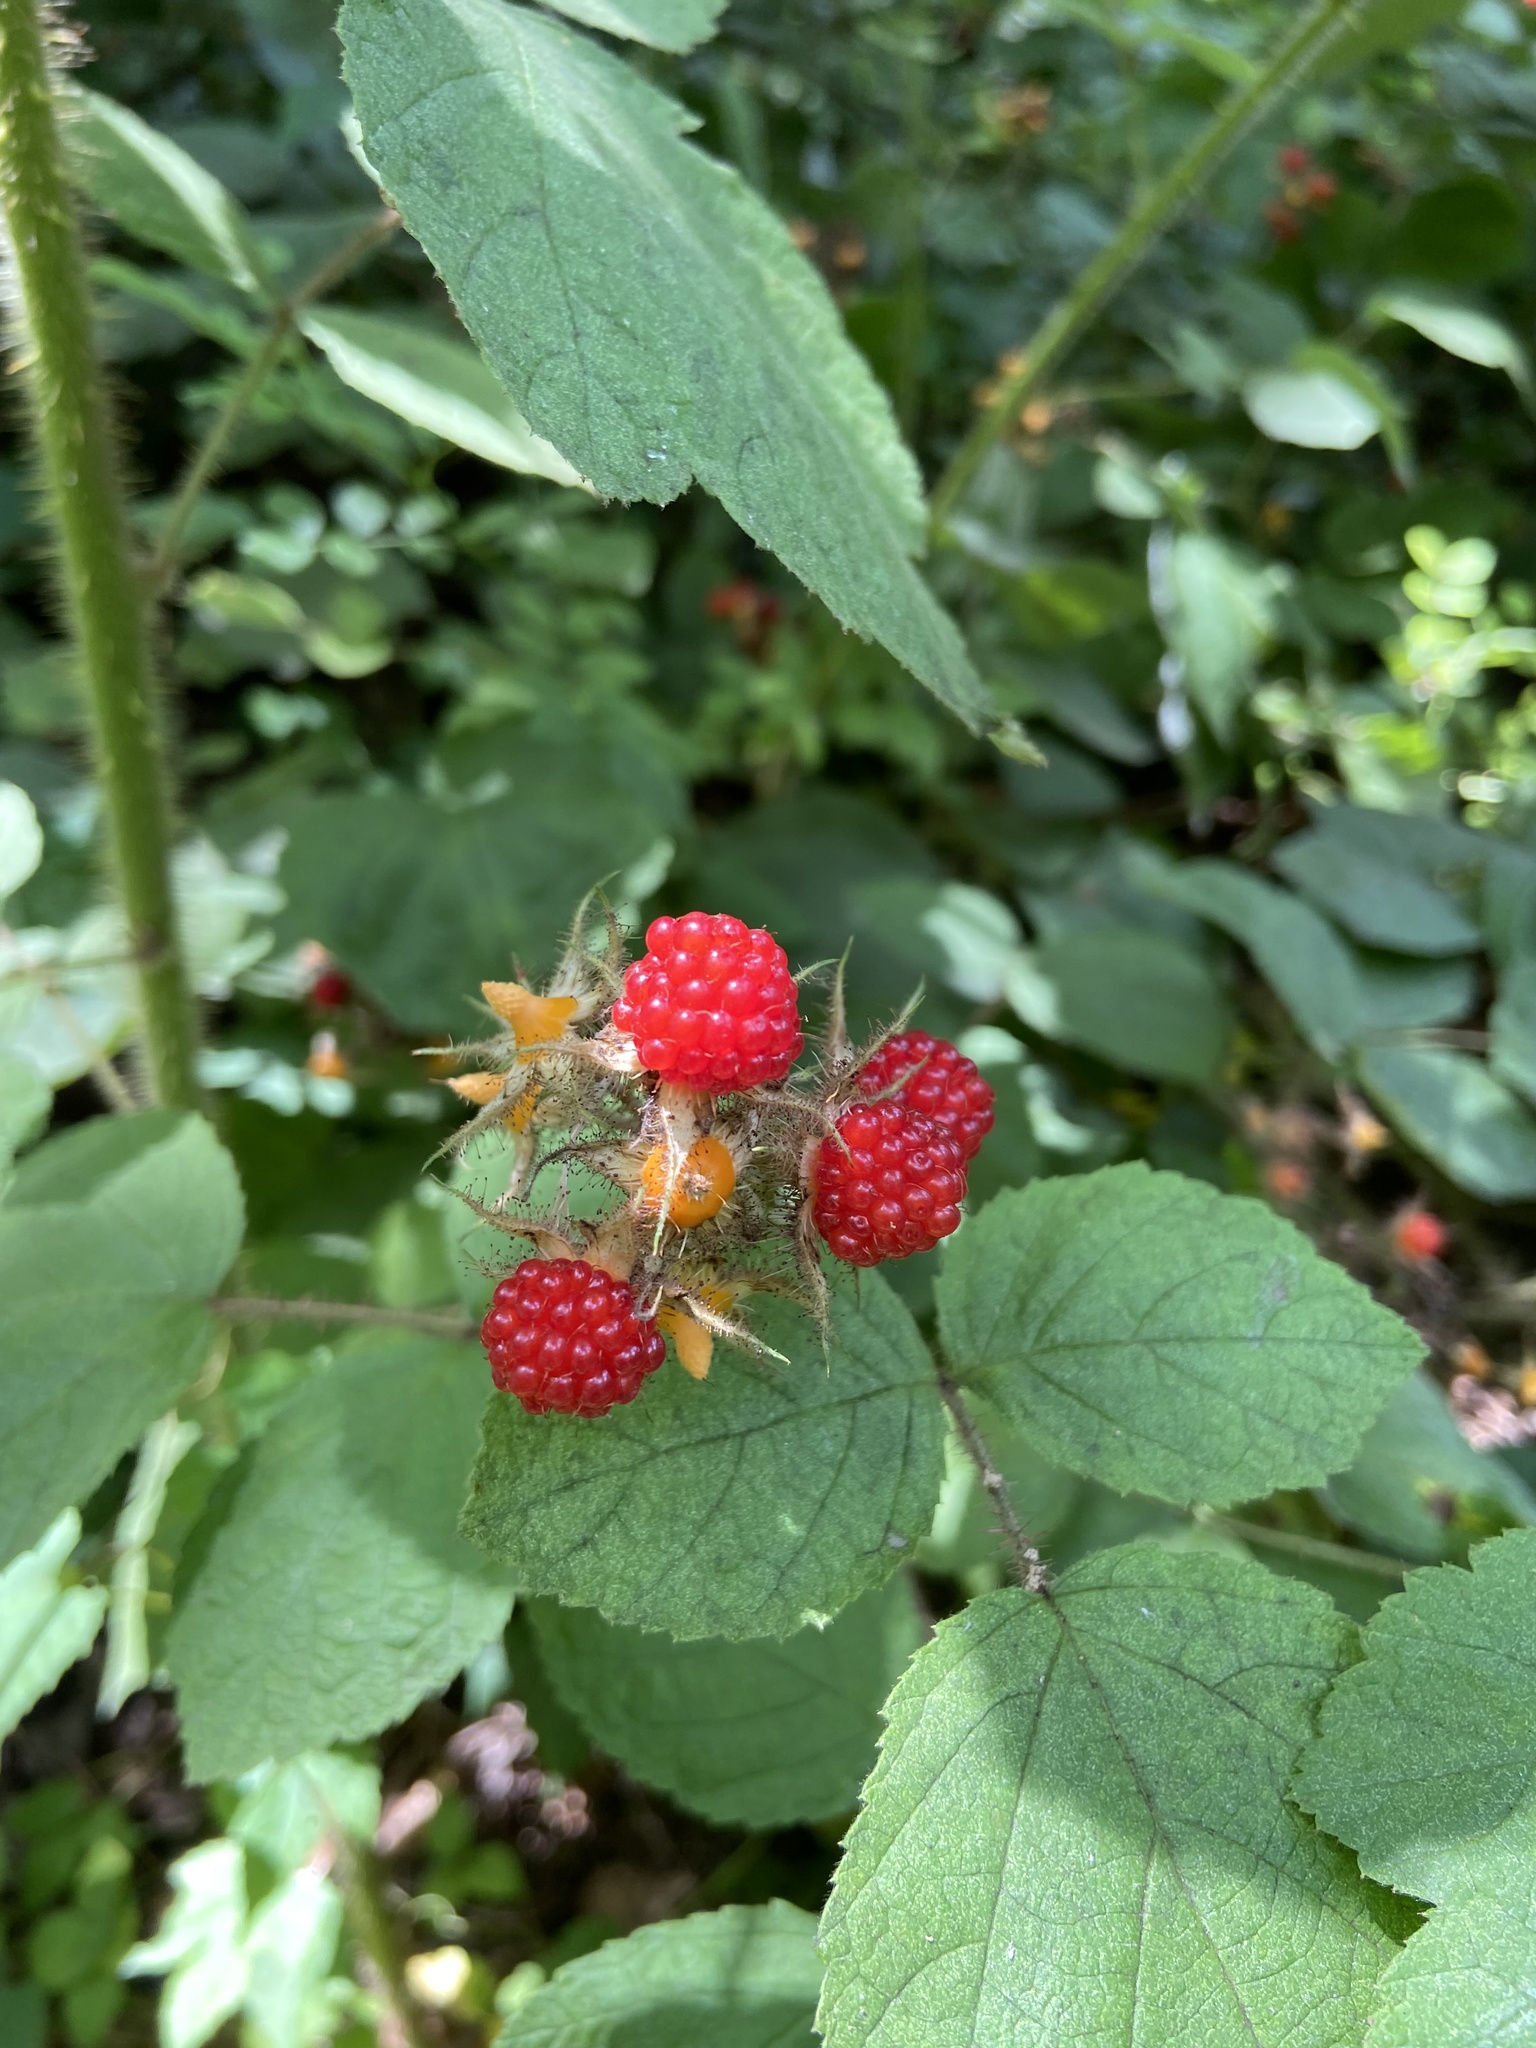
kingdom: Plantae
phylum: Tracheophyta
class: Magnoliopsida
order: Rosales
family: Rosaceae
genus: Rubus
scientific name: Rubus phoenicolasius
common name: Japanese wineberry
